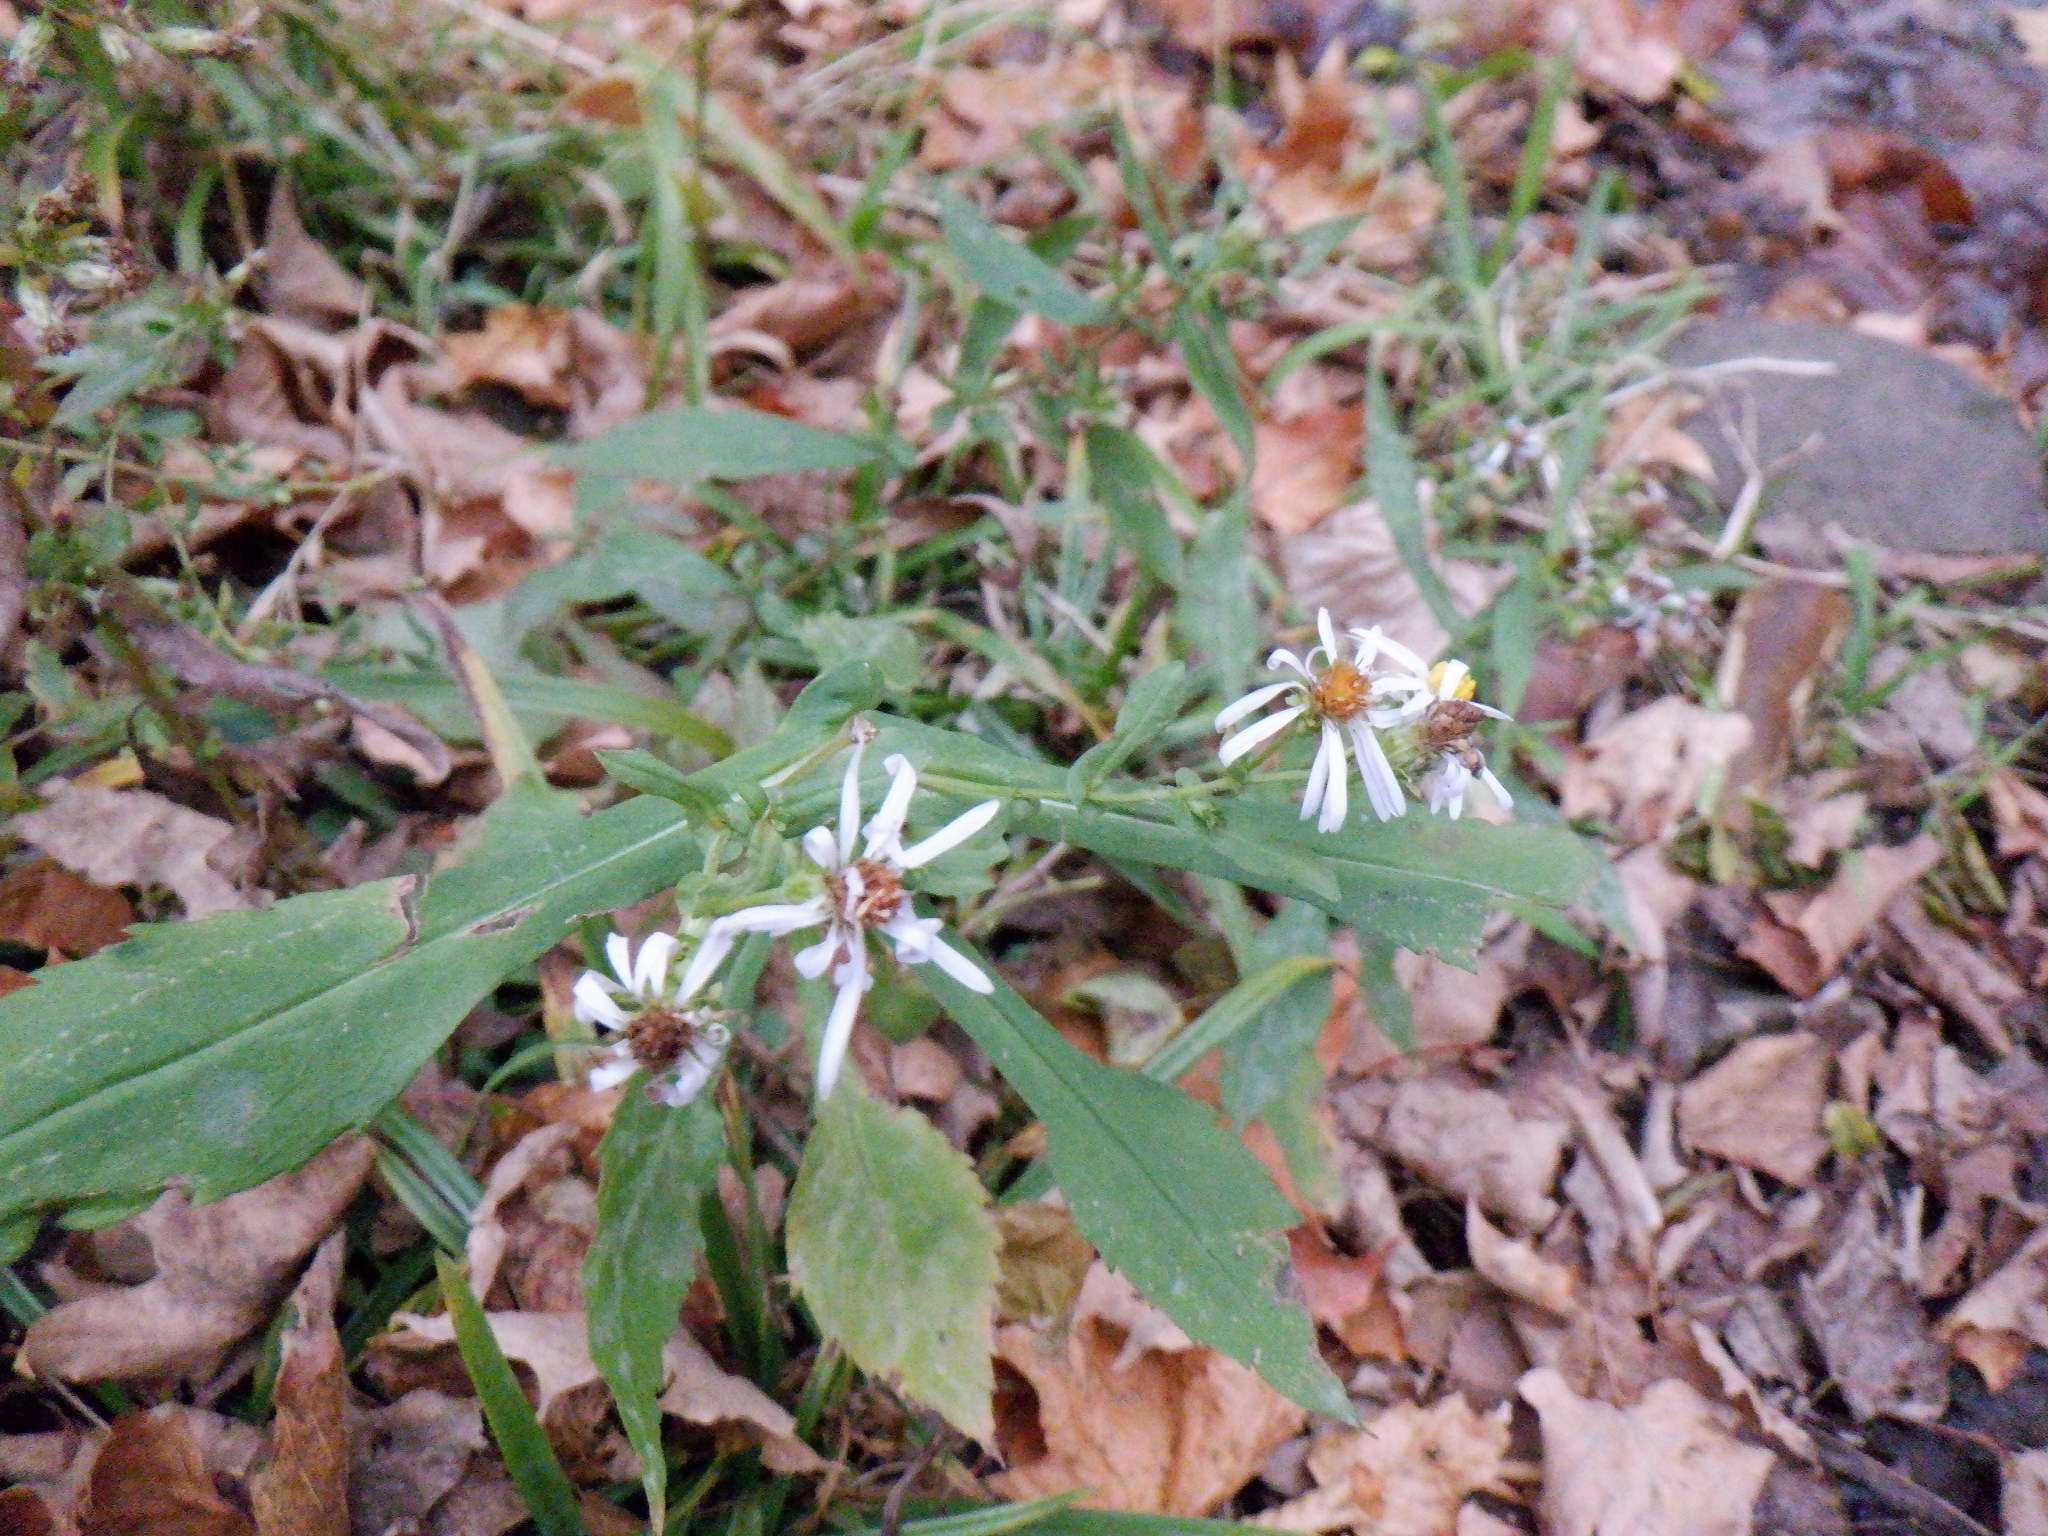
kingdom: Plantae
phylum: Tracheophyta
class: Magnoliopsida
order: Asterales
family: Asteraceae
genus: Symphyotrichum
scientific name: Symphyotrichum prenanthoides
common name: Crooked-stem aster
